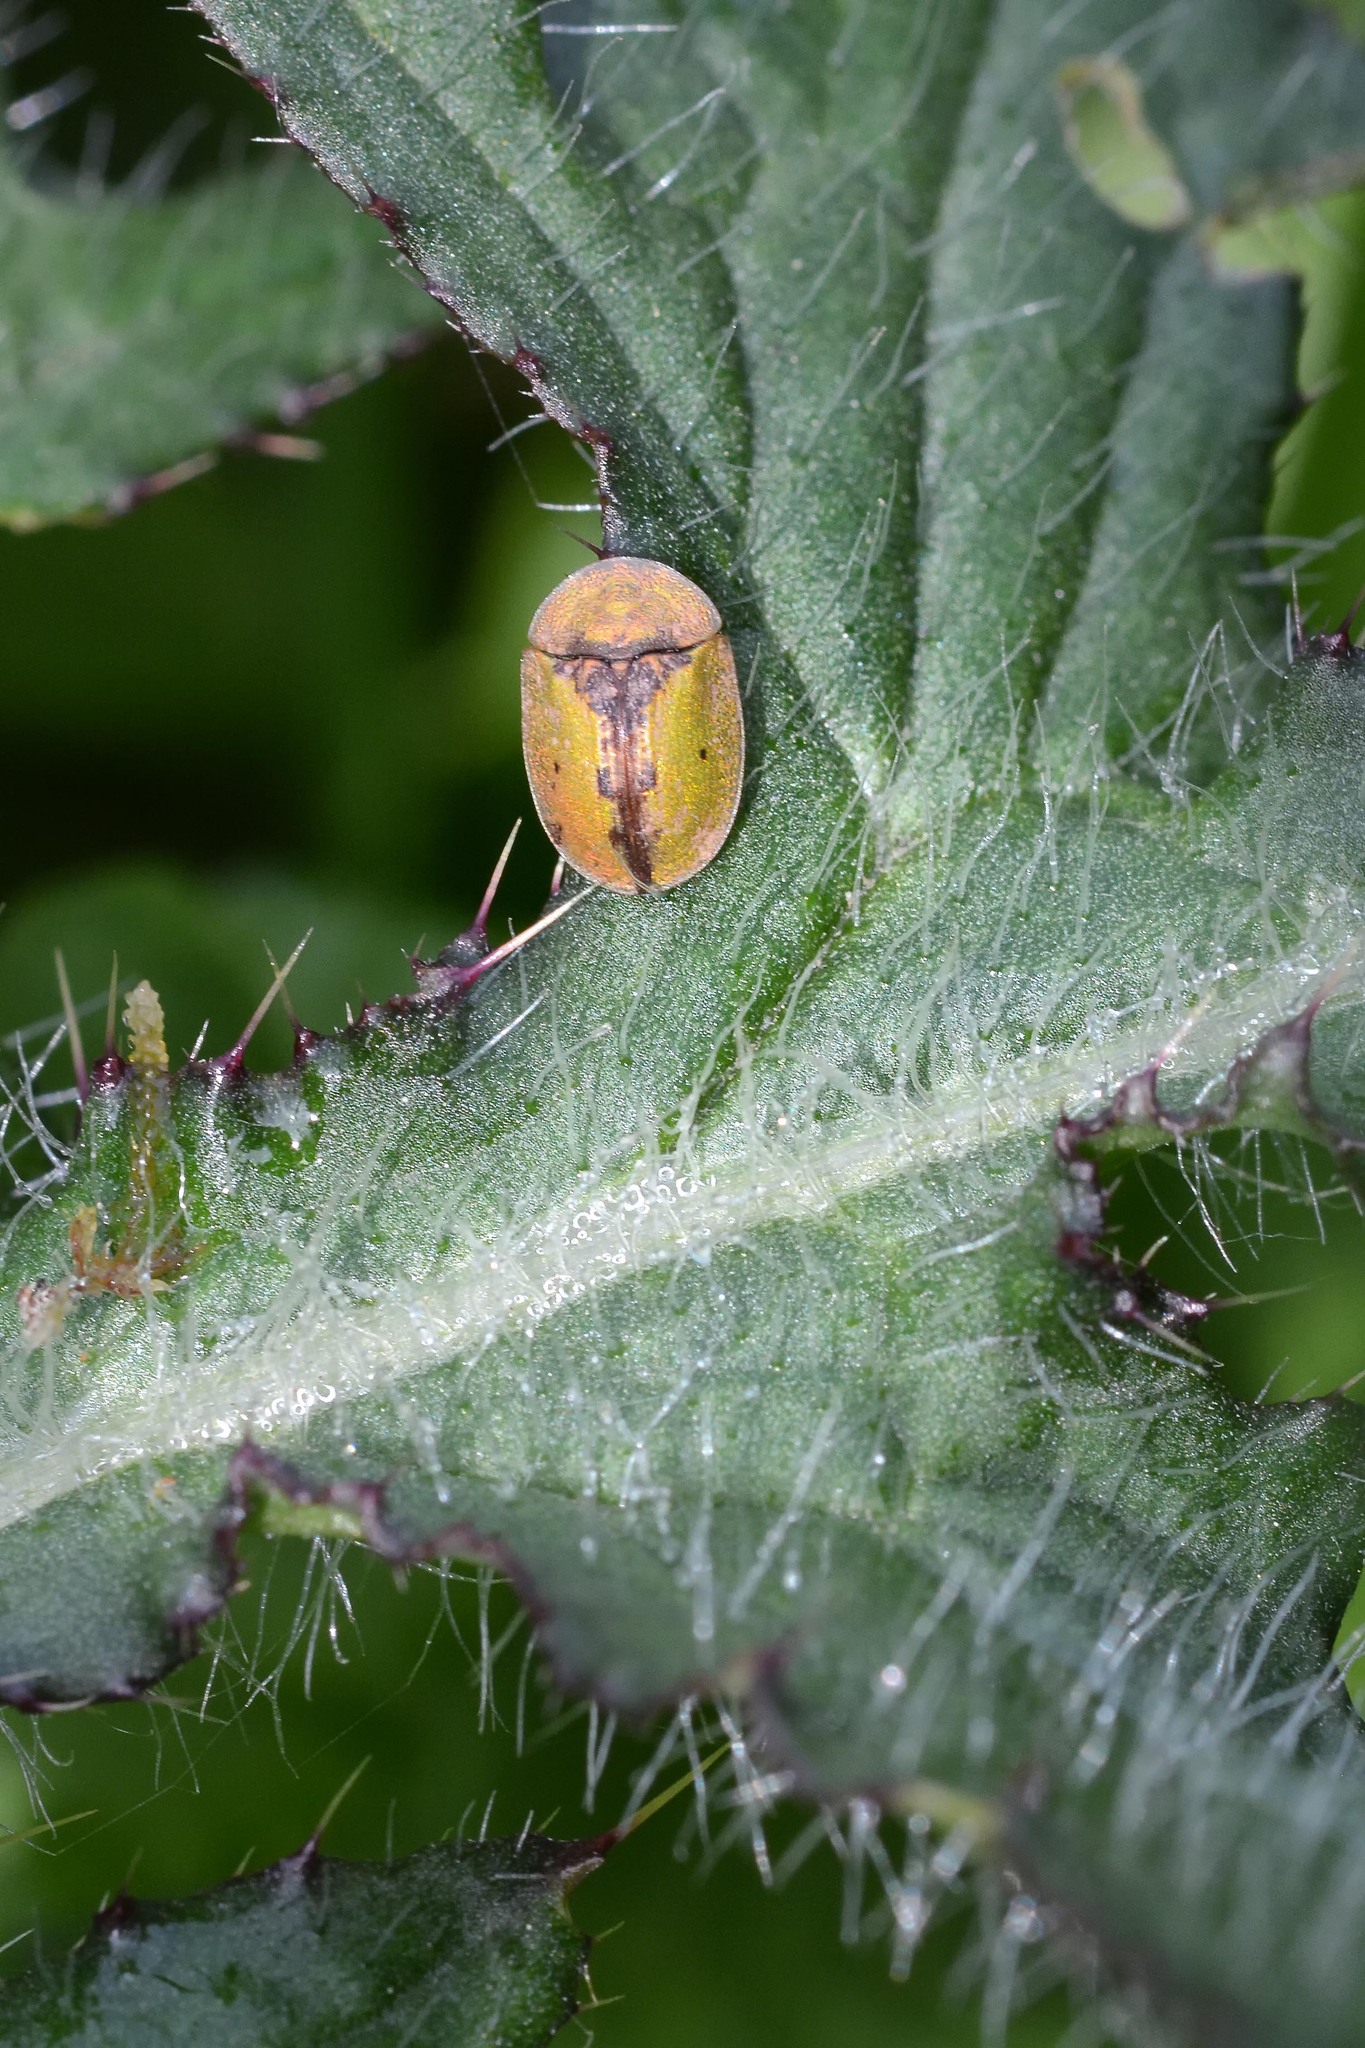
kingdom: Animalia
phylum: Arthropoda
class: Insecta
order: Coleoptera
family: Chrysomelidae
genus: Cassida
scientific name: Cassida vibex
